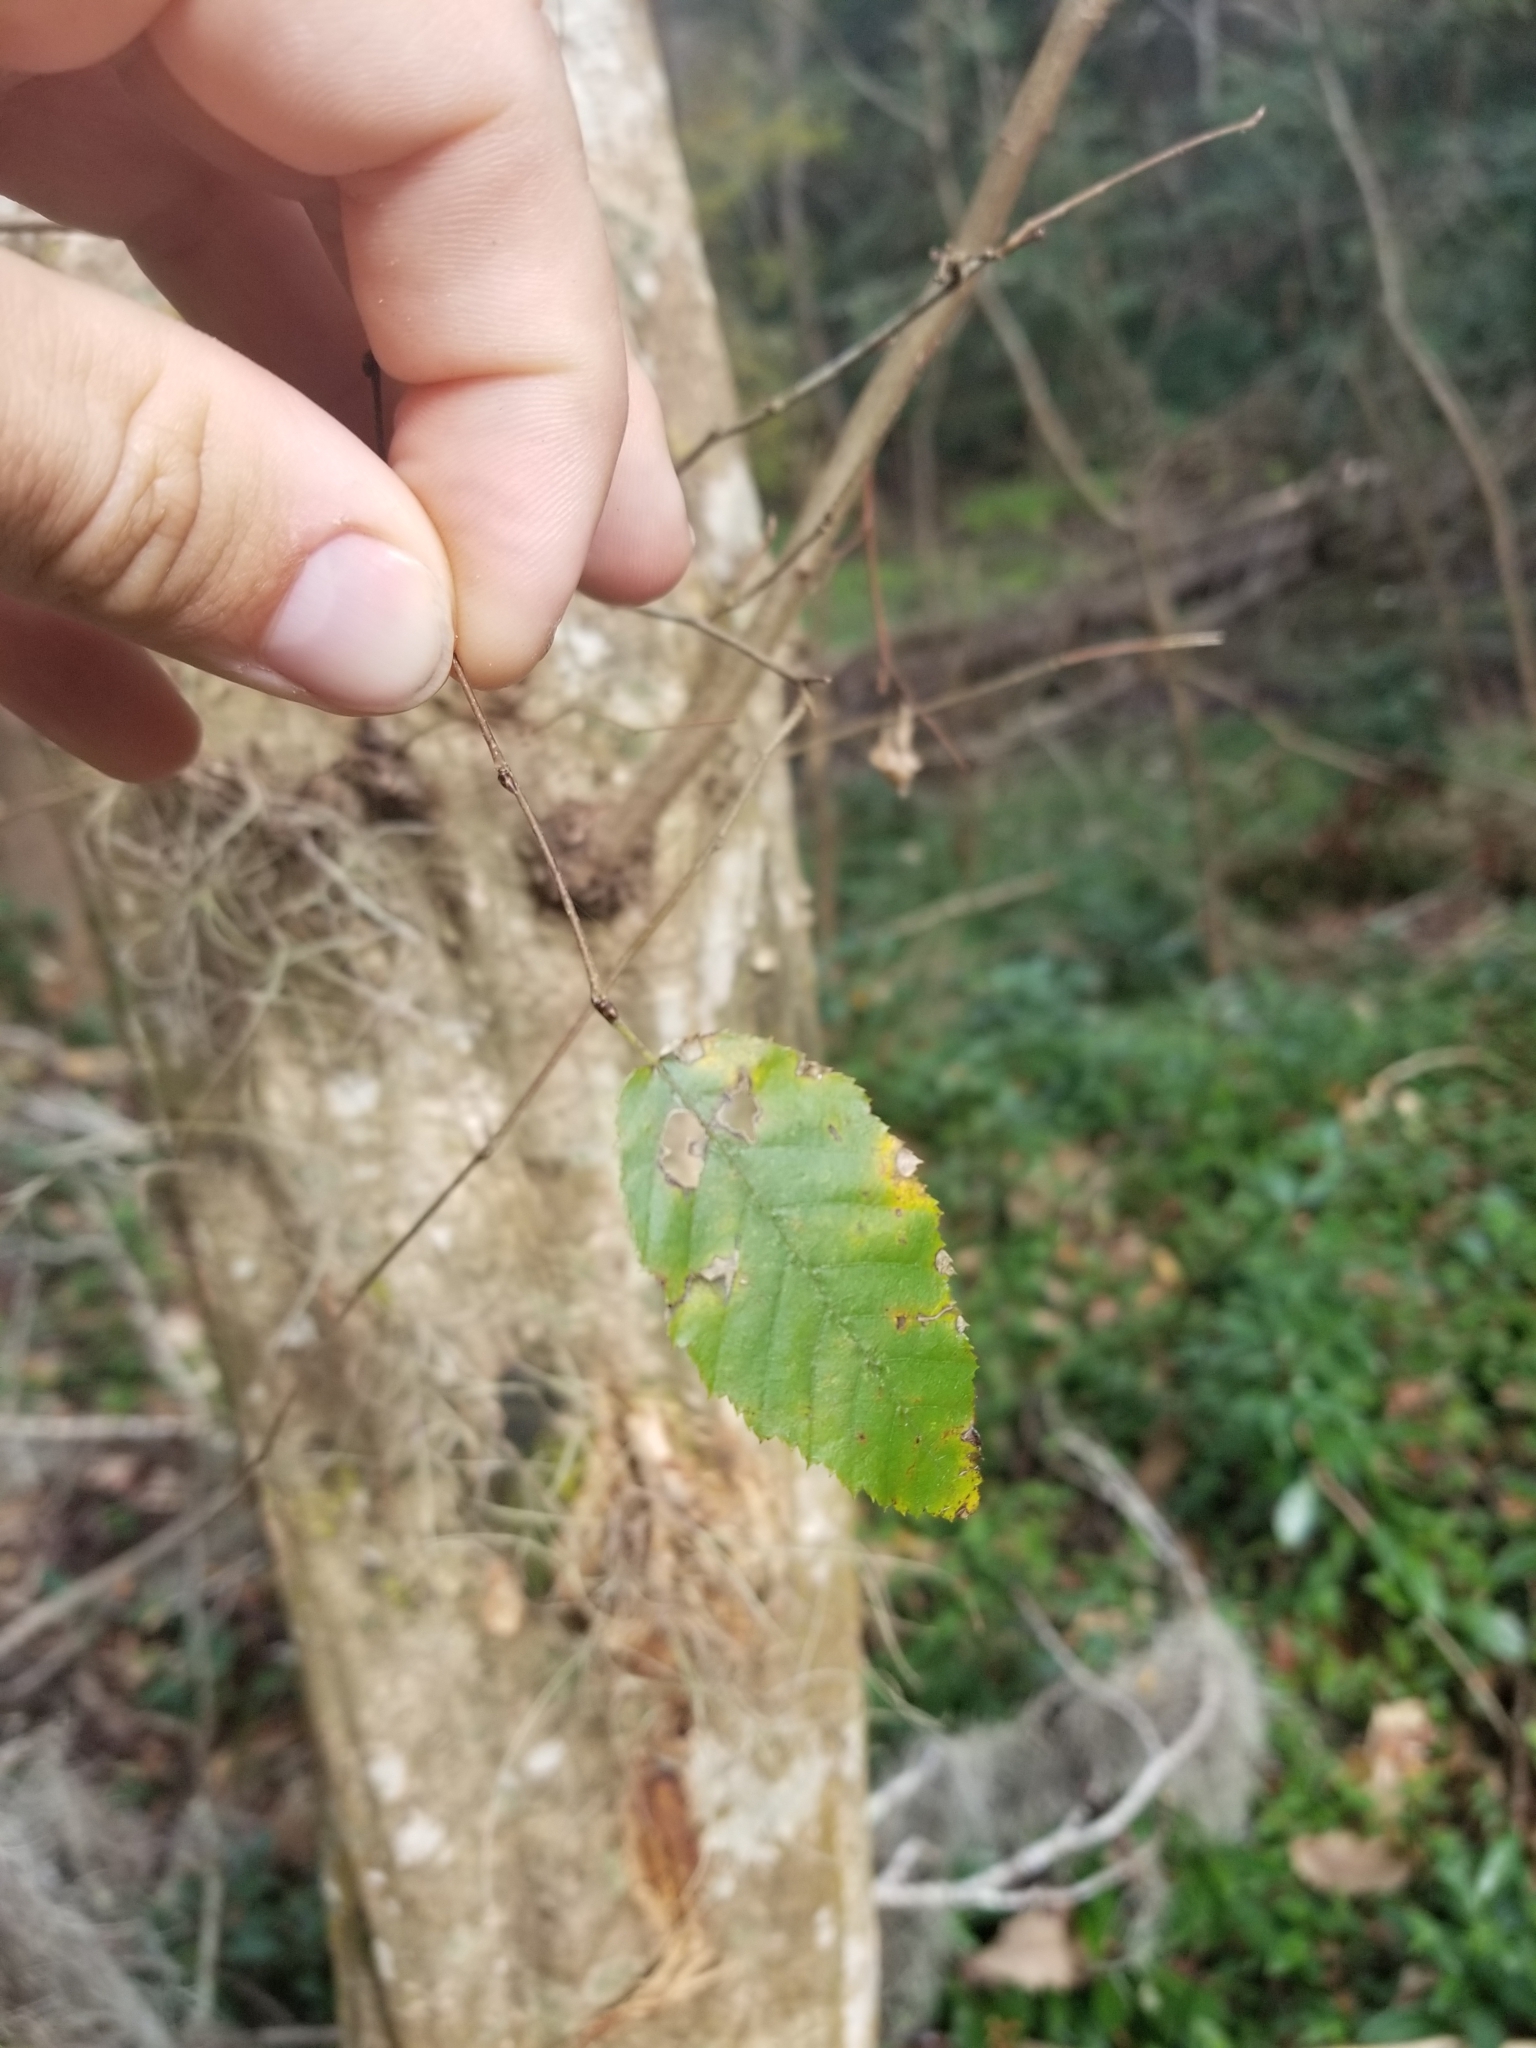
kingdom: Plantae
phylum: Tracheophyta
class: Magnoliopsida
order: Fagales
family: Betulaceae
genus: Carpinus
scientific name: Carpinus caroliniana
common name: American hornbeam
